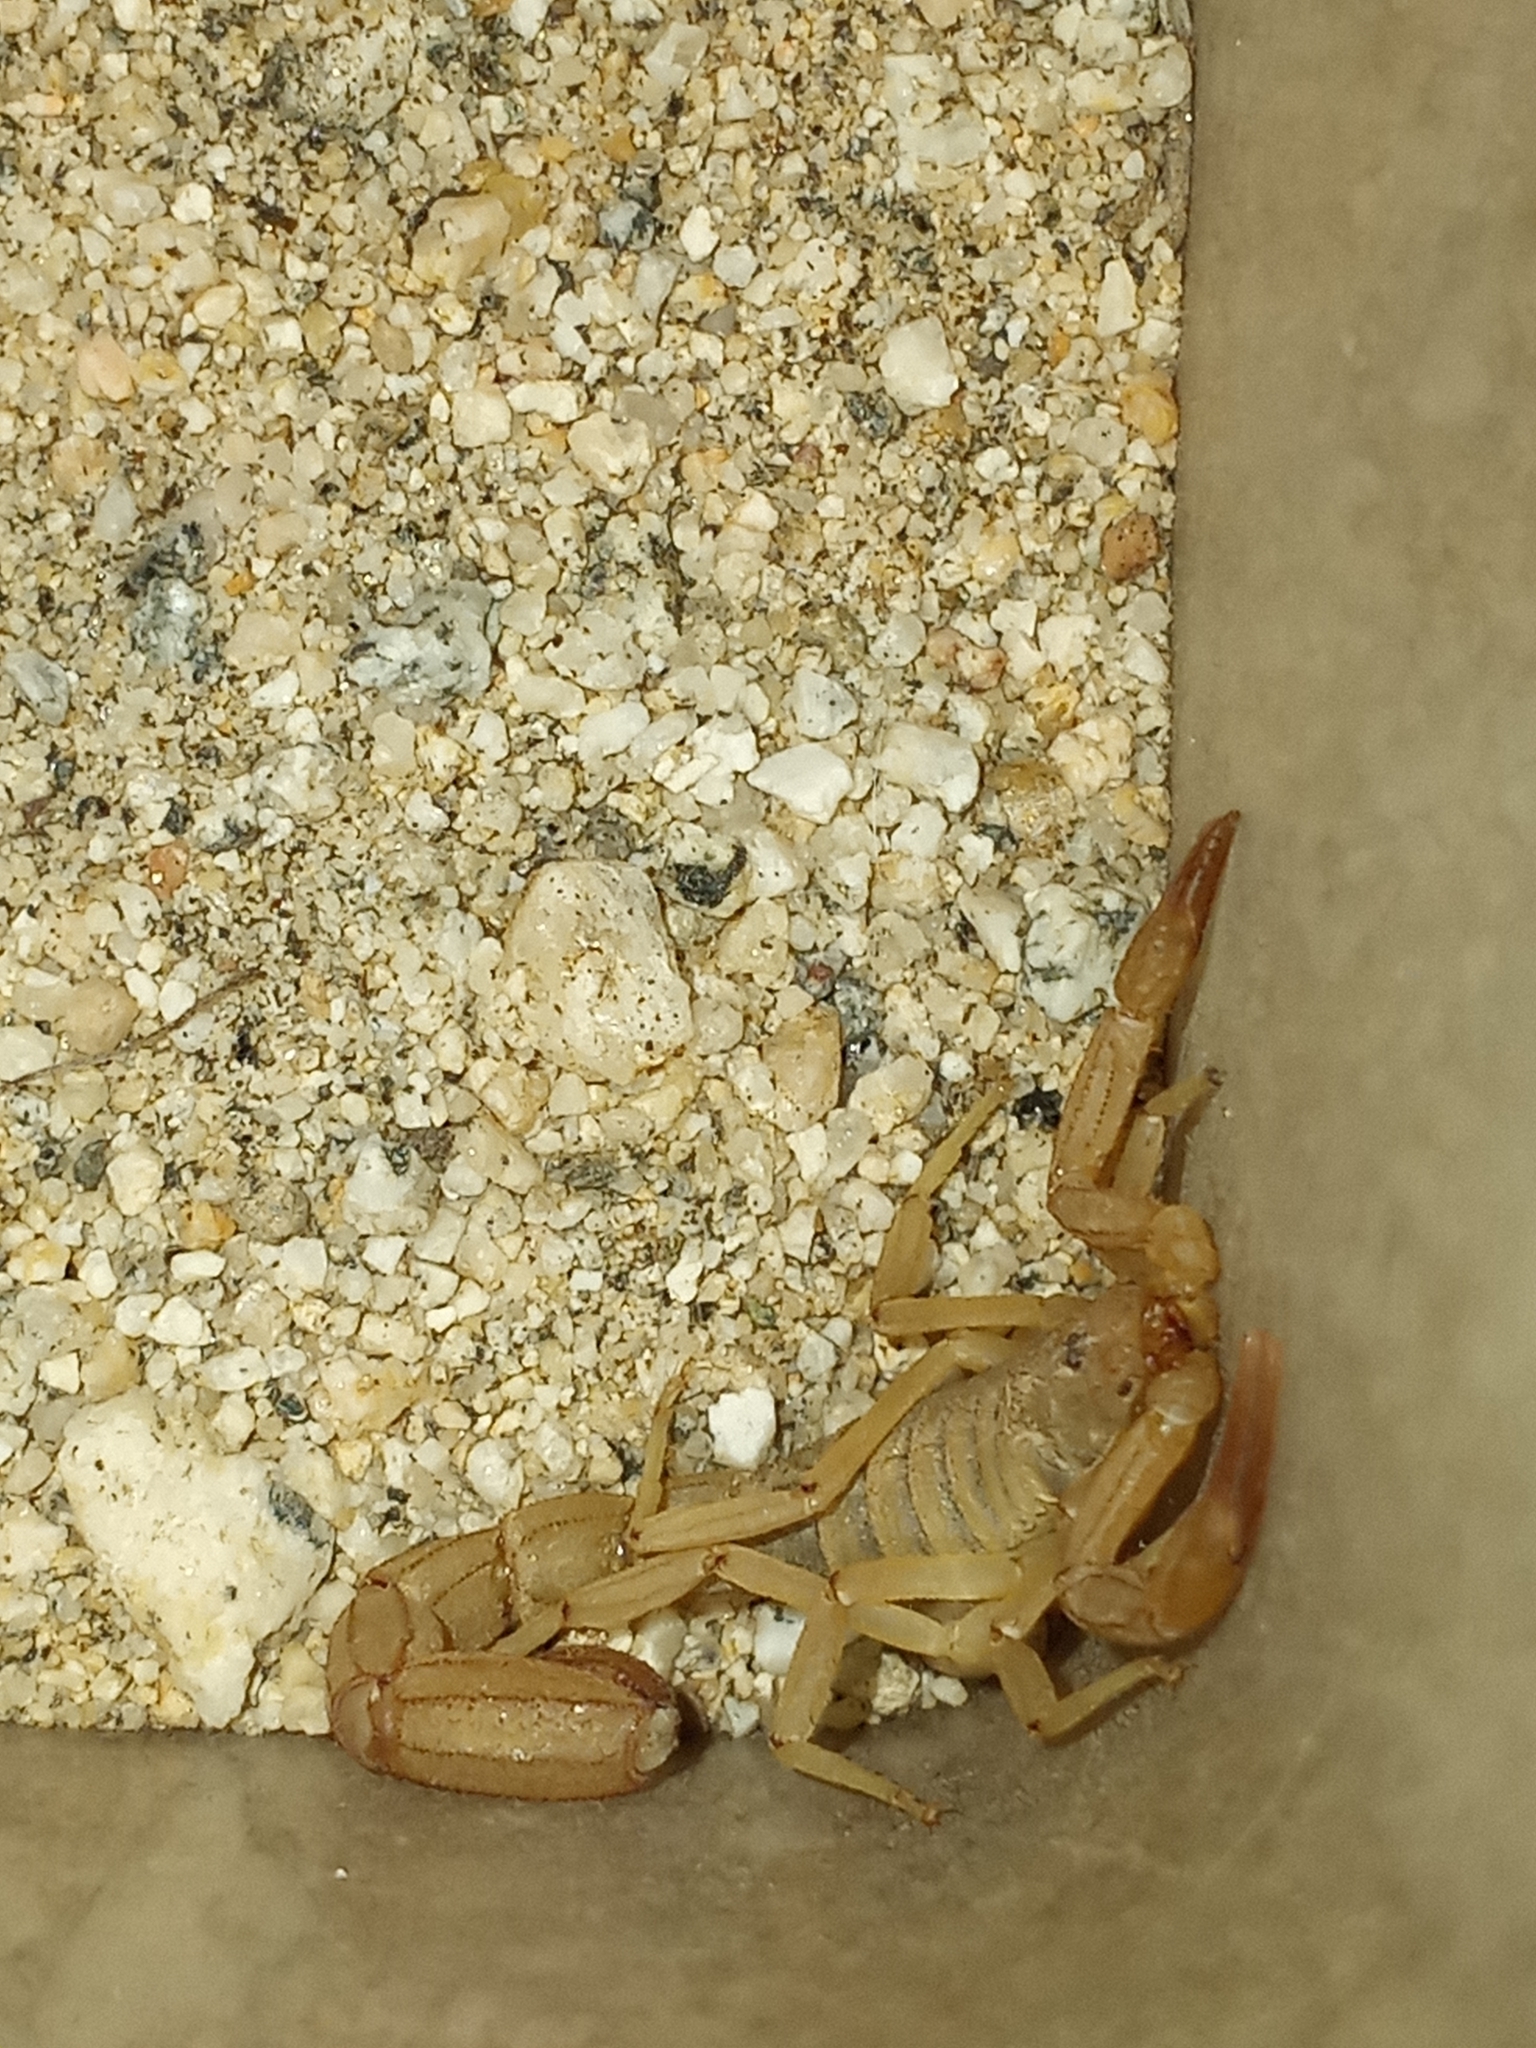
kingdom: Animalia
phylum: Arthropoda
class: Arachnida
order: Scorpiones
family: Vaejovidae
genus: Paravaejovis
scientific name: Paravaejovis waeringi
